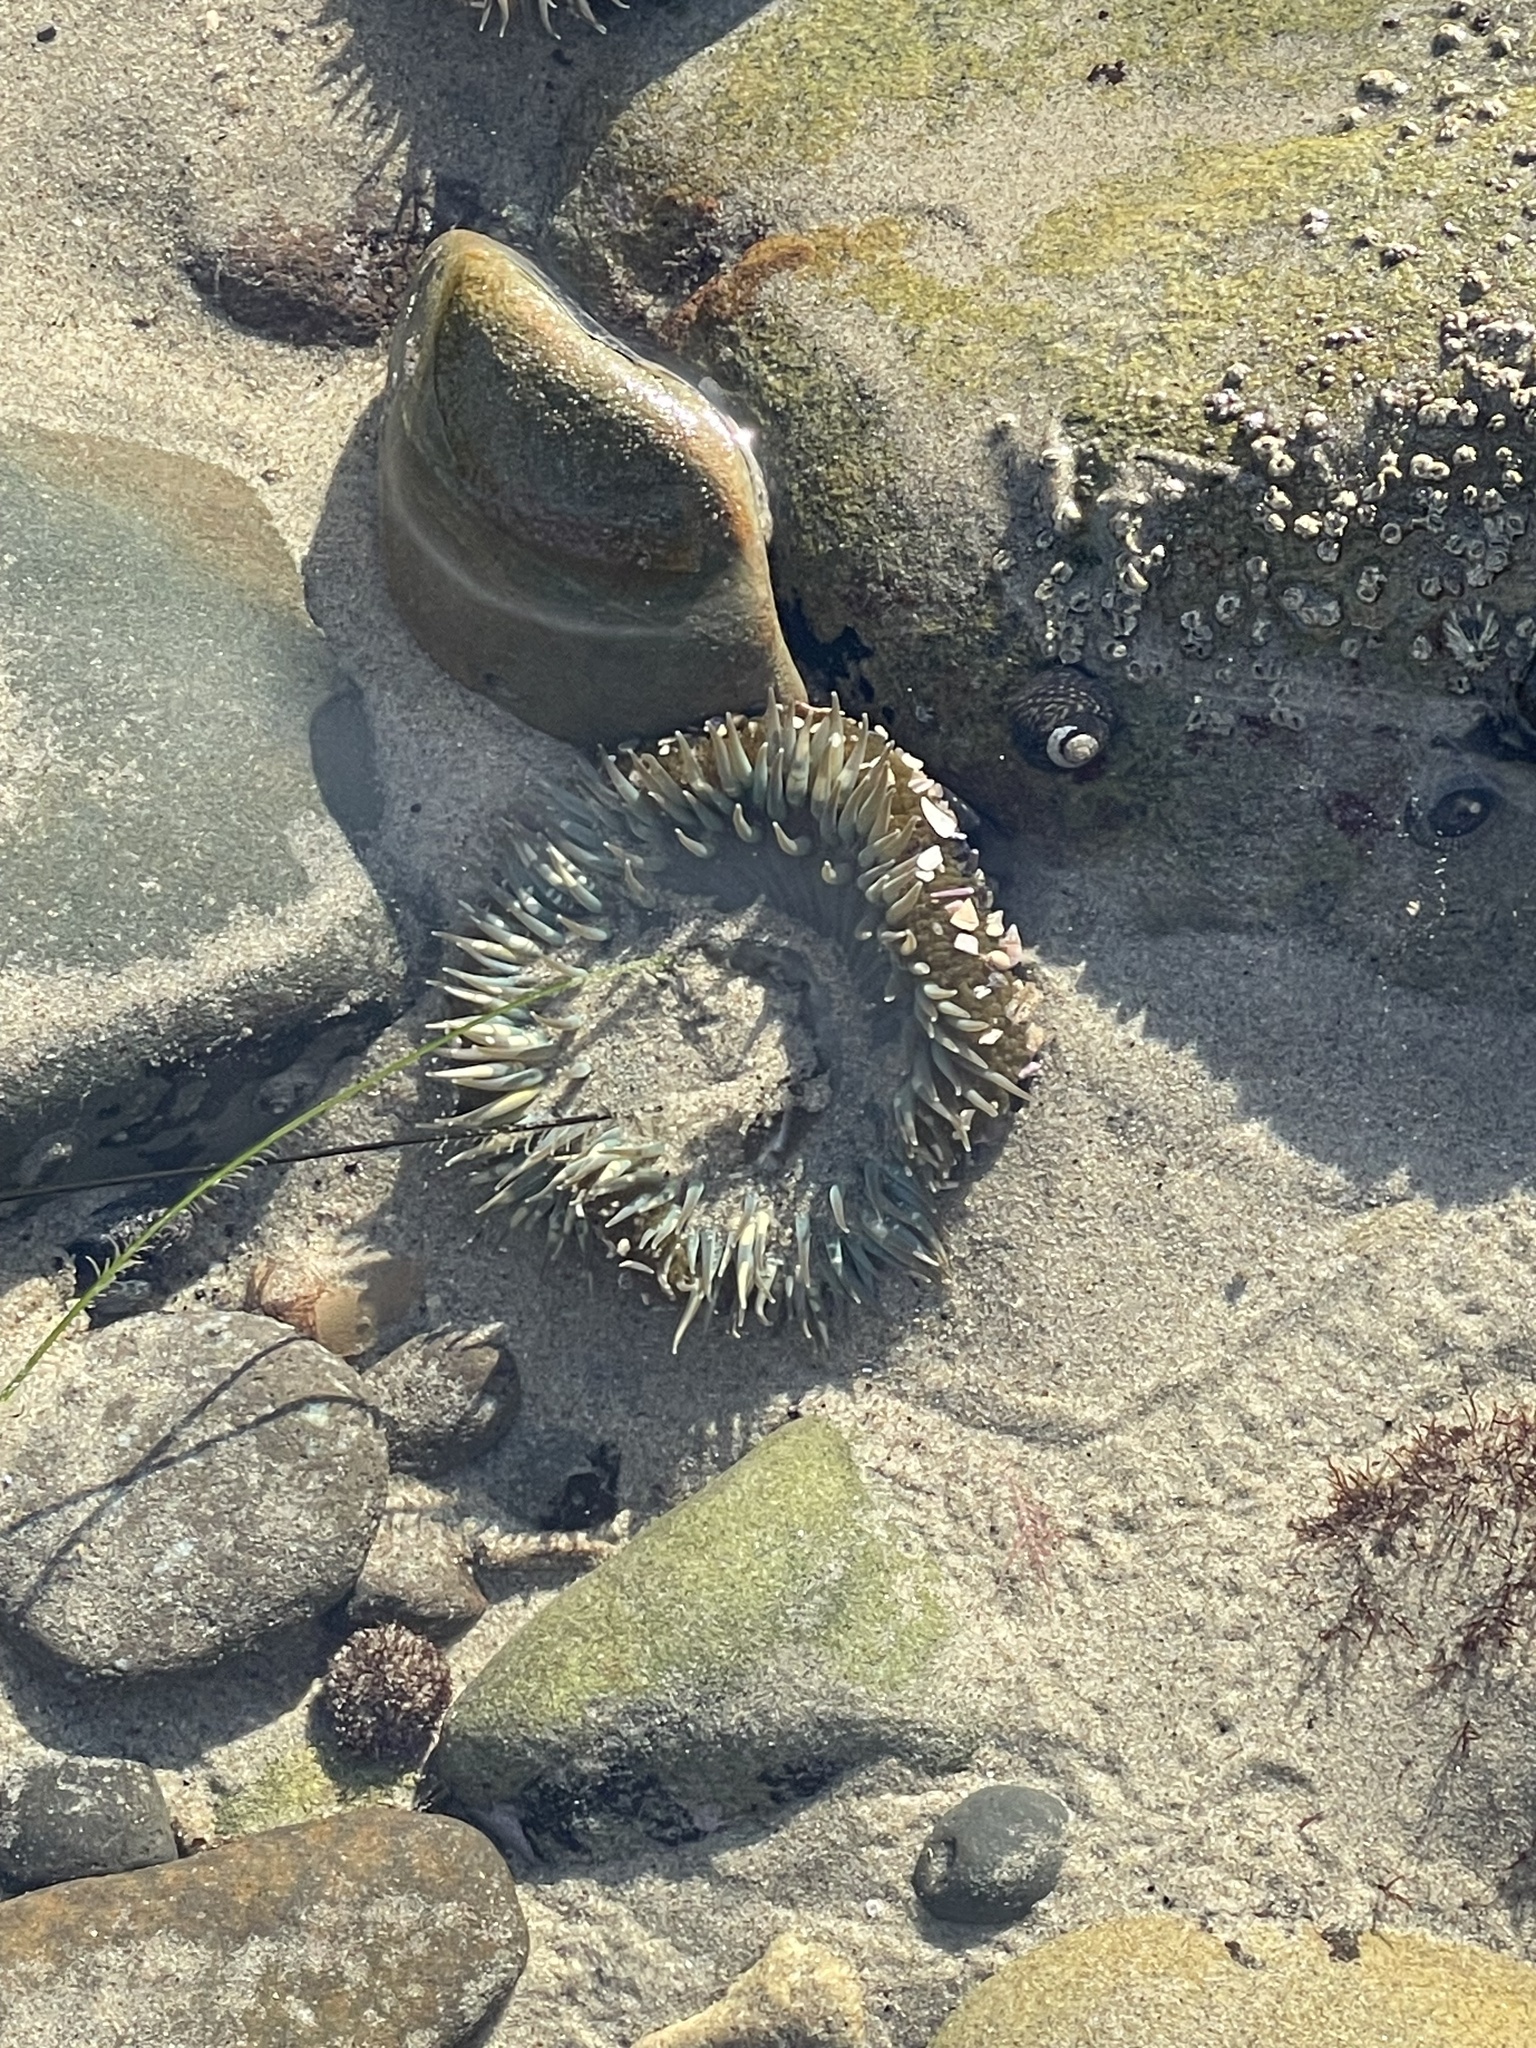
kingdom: Animalia
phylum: Cnidaria
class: Anthozoa
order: Actiniaria
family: Actiniidae
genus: Anthopleura
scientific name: Anthopleura sola
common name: Sun anemone
